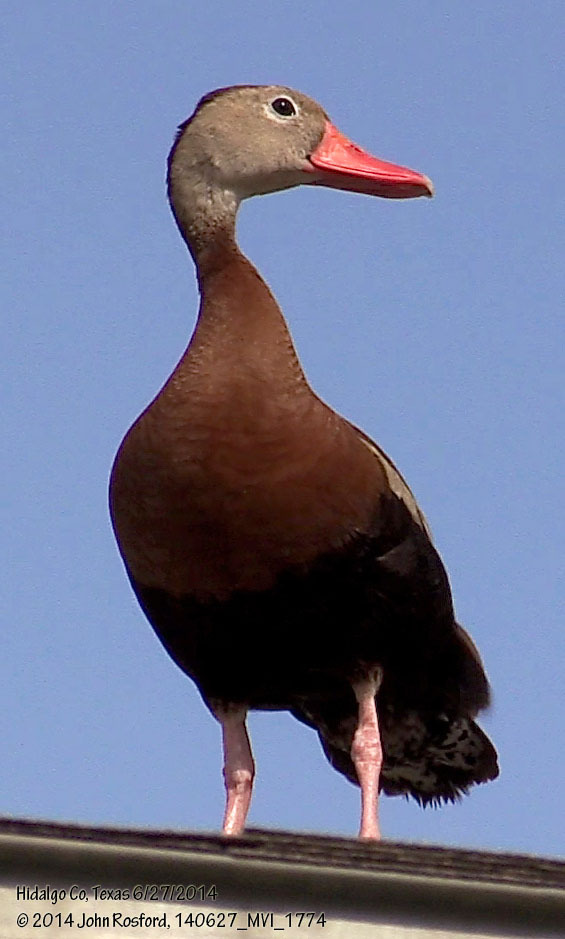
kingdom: Animalia
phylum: Chordata
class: Aves
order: Anseriformes
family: Anatidae
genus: Dendrocygna
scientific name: Dendrocygna autumnalis
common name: Black-bellied whistling duck
